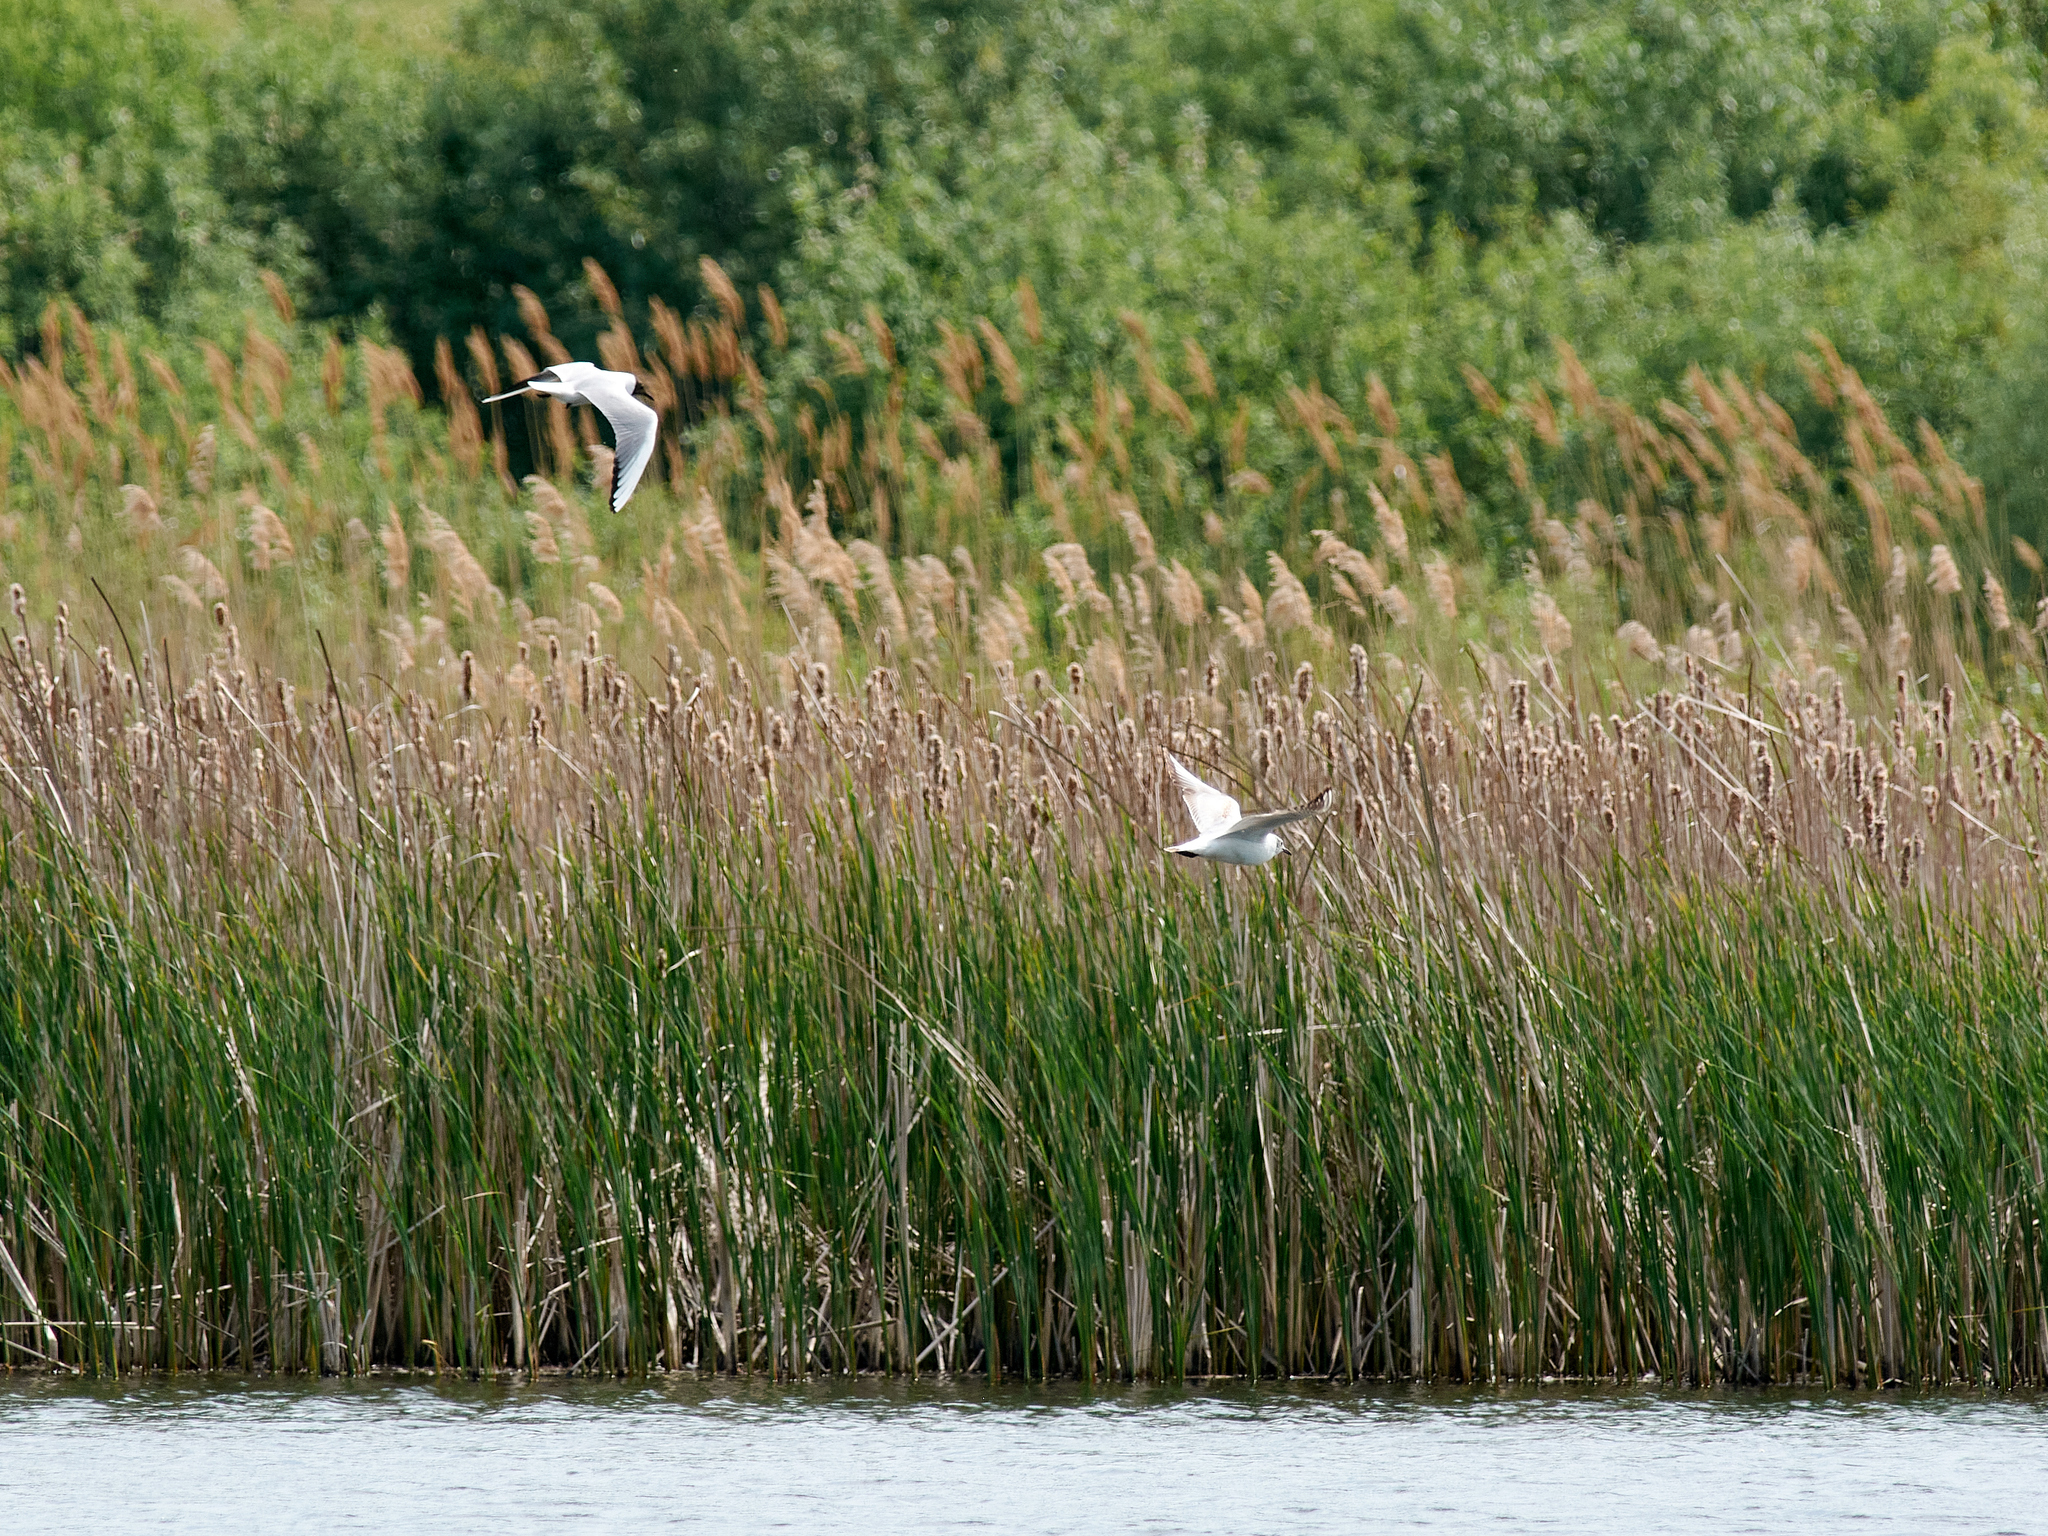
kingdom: Animalia
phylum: Chordata
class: Aves
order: Charadriiformes
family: Laridae
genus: Chroicocephalus
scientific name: Chroicocephalus ridibundus
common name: Black-headed gull
